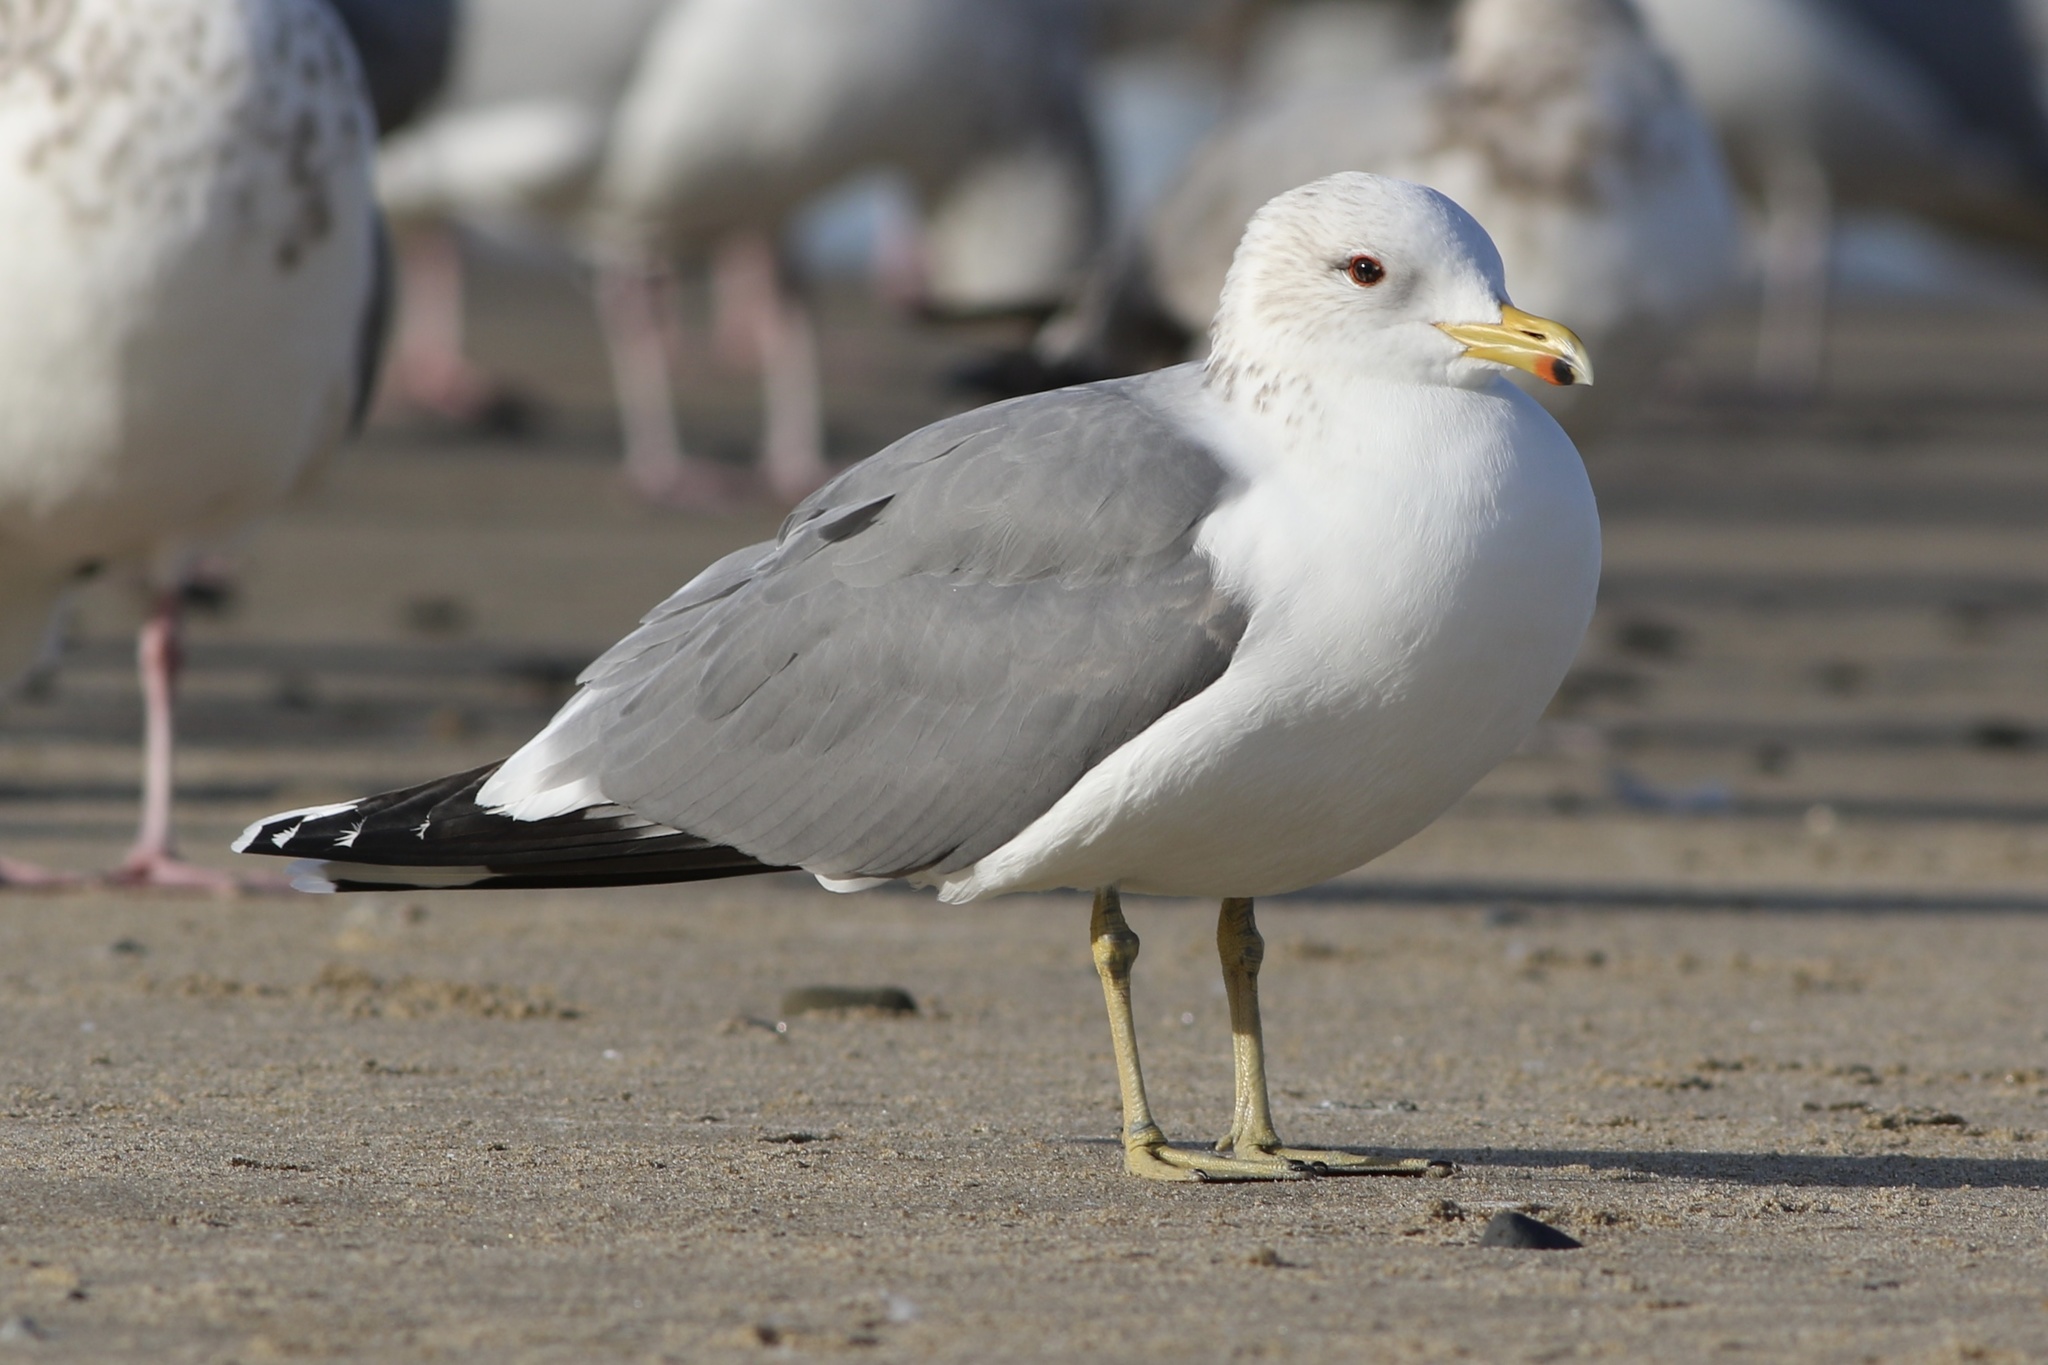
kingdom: Animalia
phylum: Chordata
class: Aves
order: Charadriiformes
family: Laridae
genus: Larus
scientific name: Larus californicus
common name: California gull
